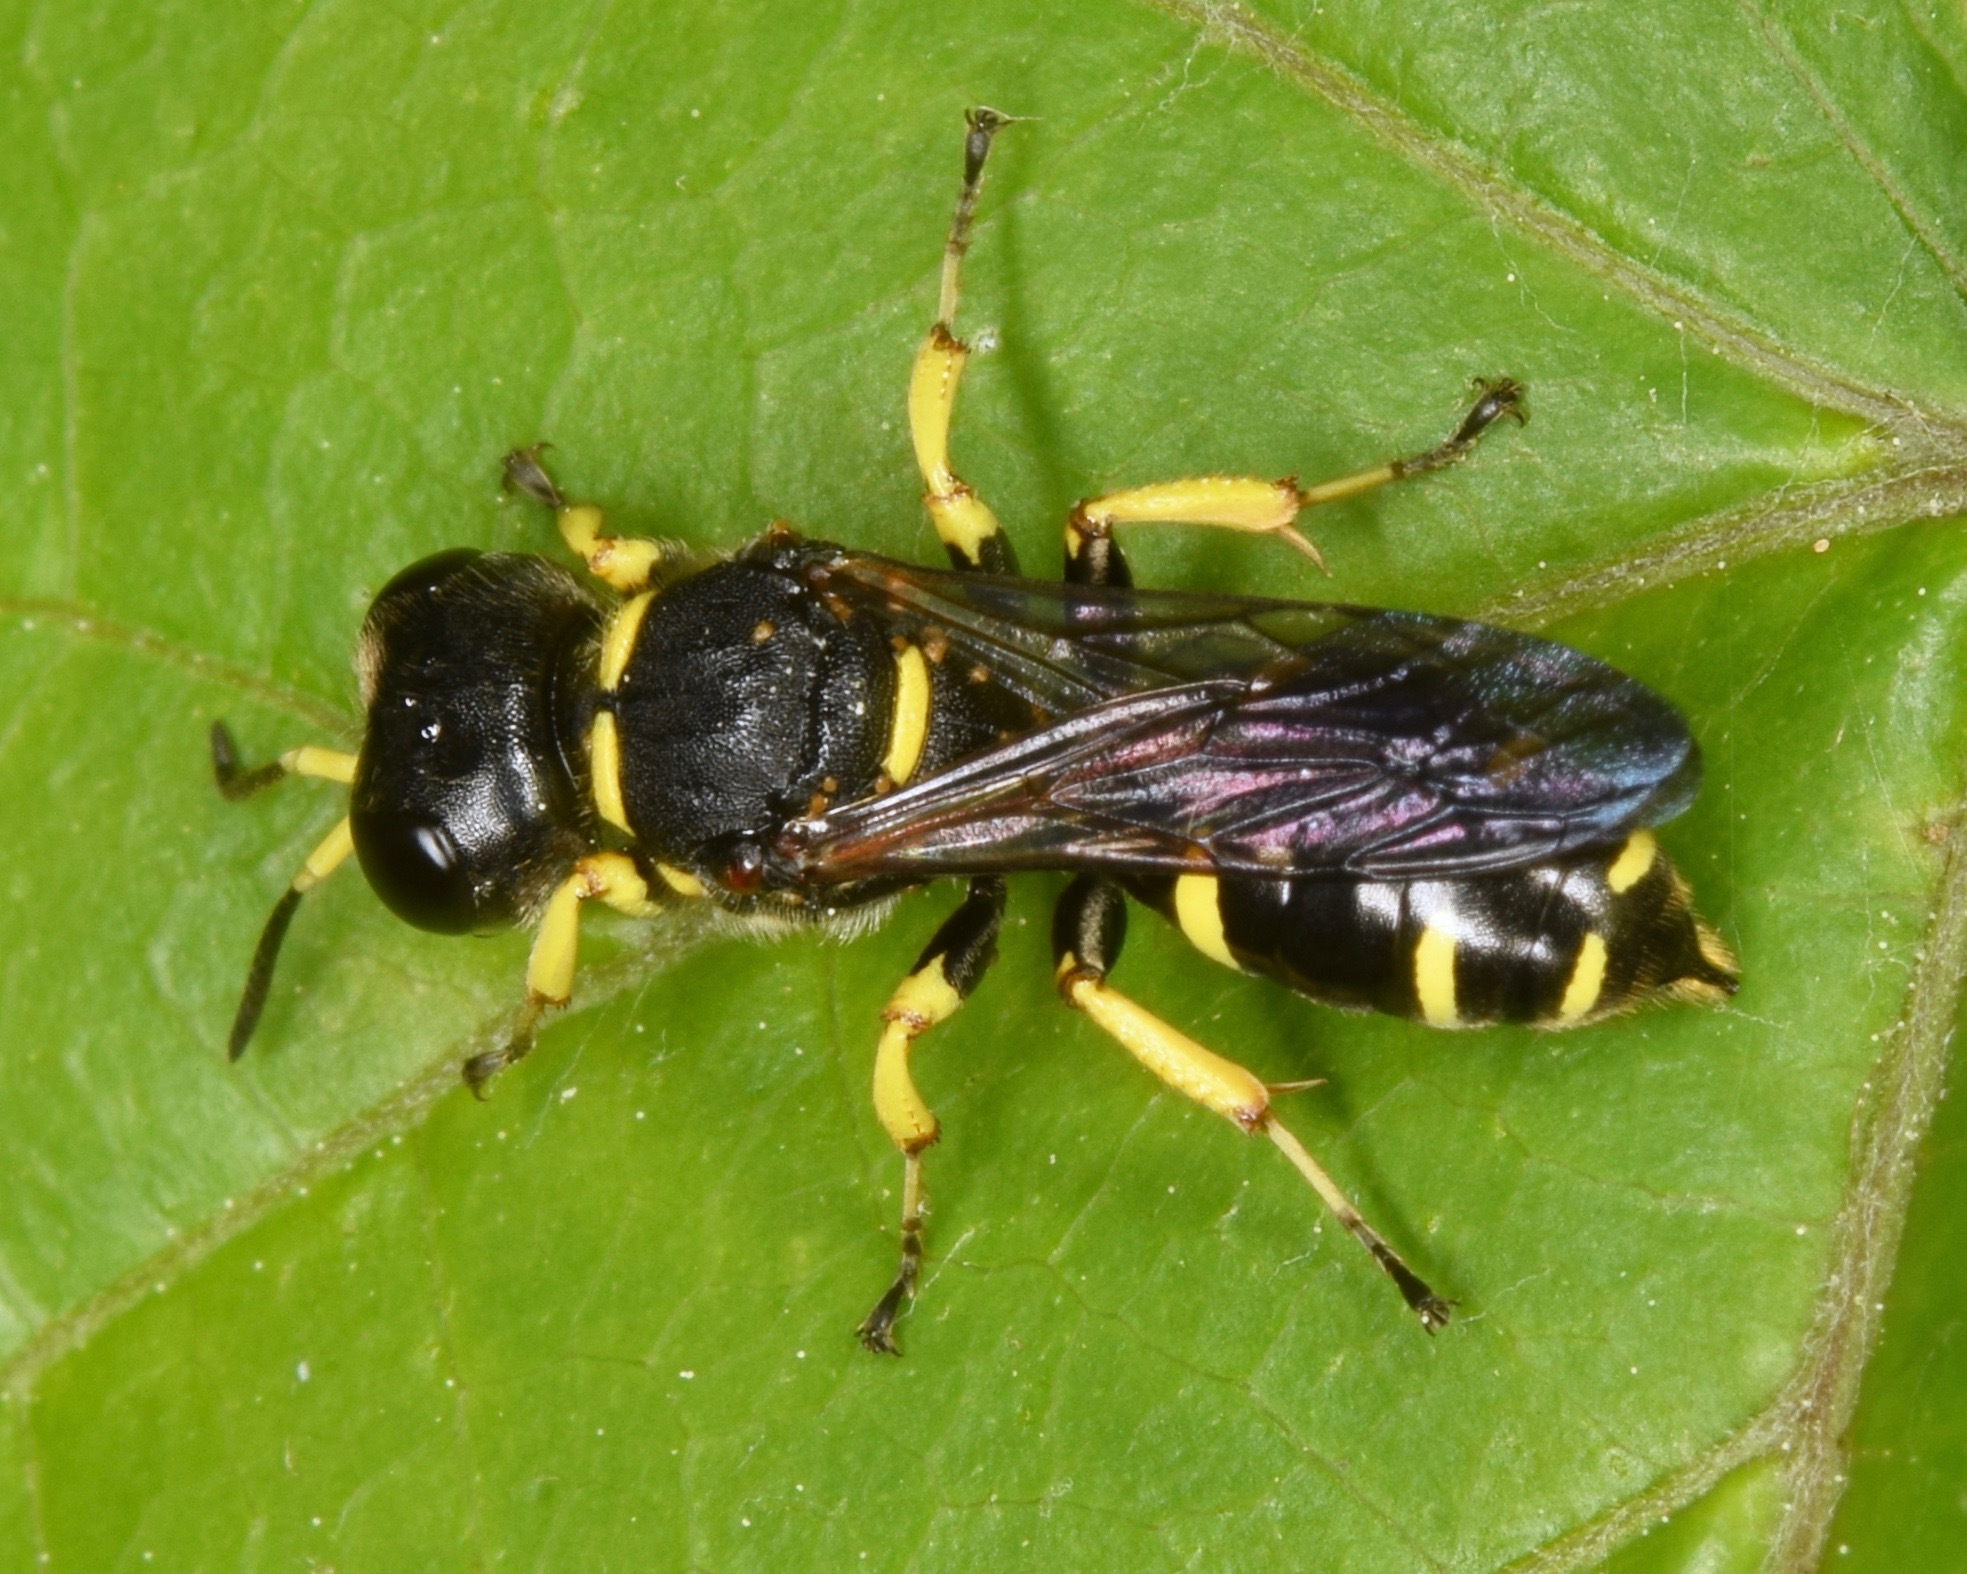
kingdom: Animalia
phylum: Arthropoda
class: Insecta
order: Hymenoptera
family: Crabronidae
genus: Ectemnius
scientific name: Ectemnius continuus
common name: Common ectemnius
